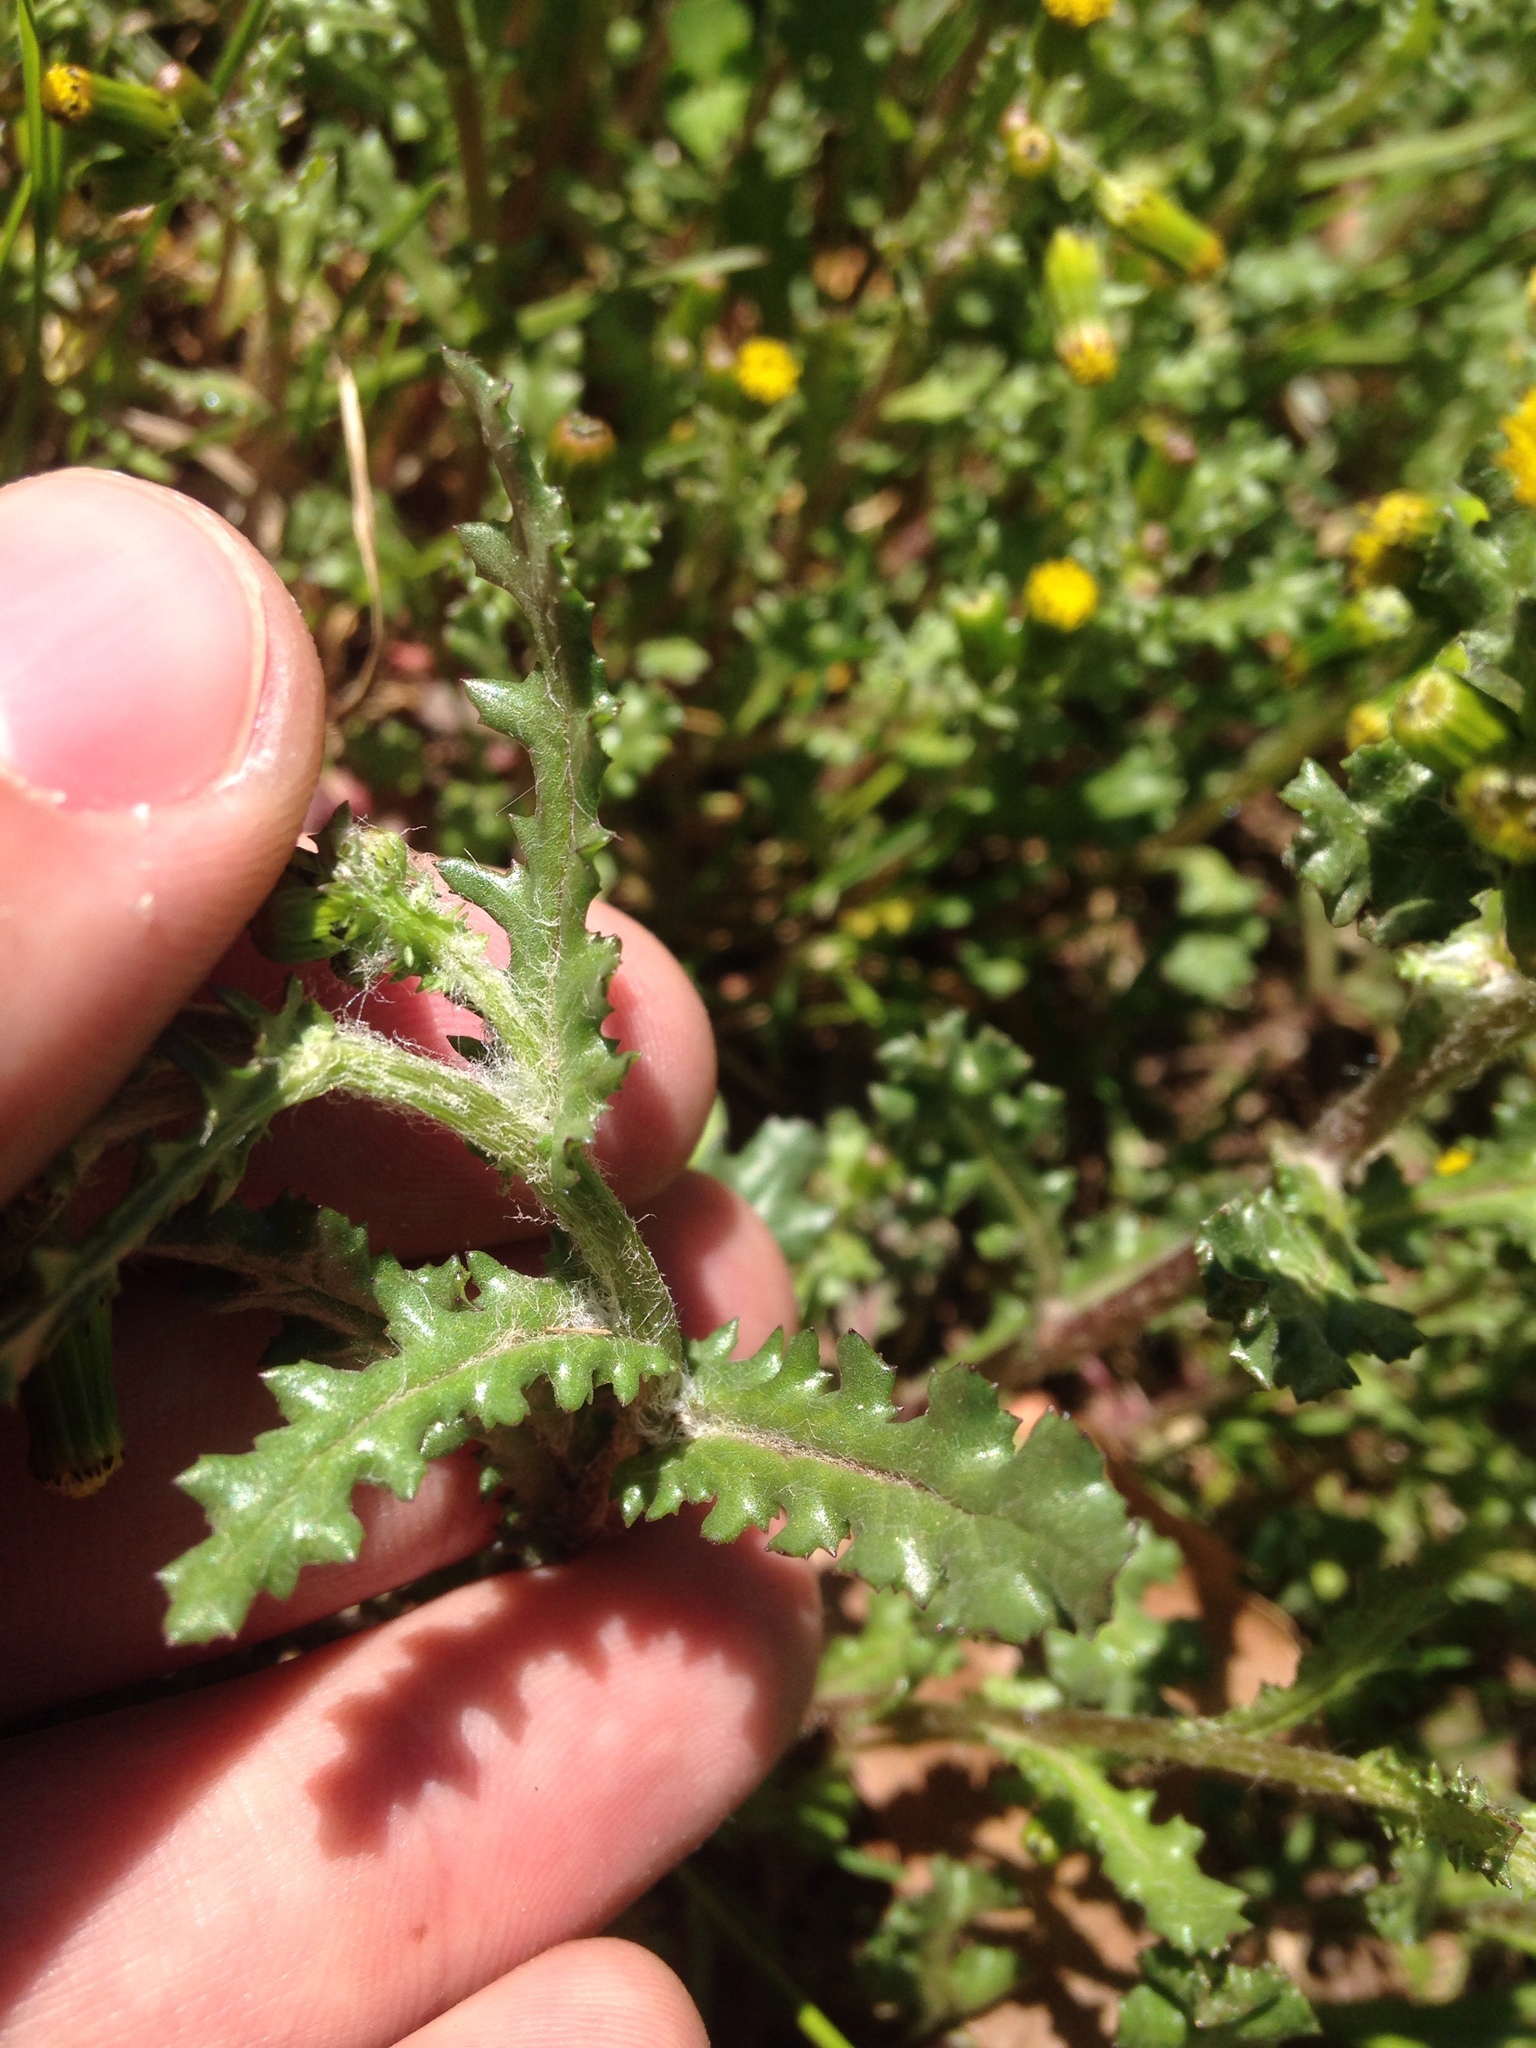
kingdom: Plantae
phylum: Tracheophyta
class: Magnoliopsida
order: Asterales
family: Asteraceae
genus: Senecio
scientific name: Senecio vulgaris
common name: Old-man-in-the-spring
